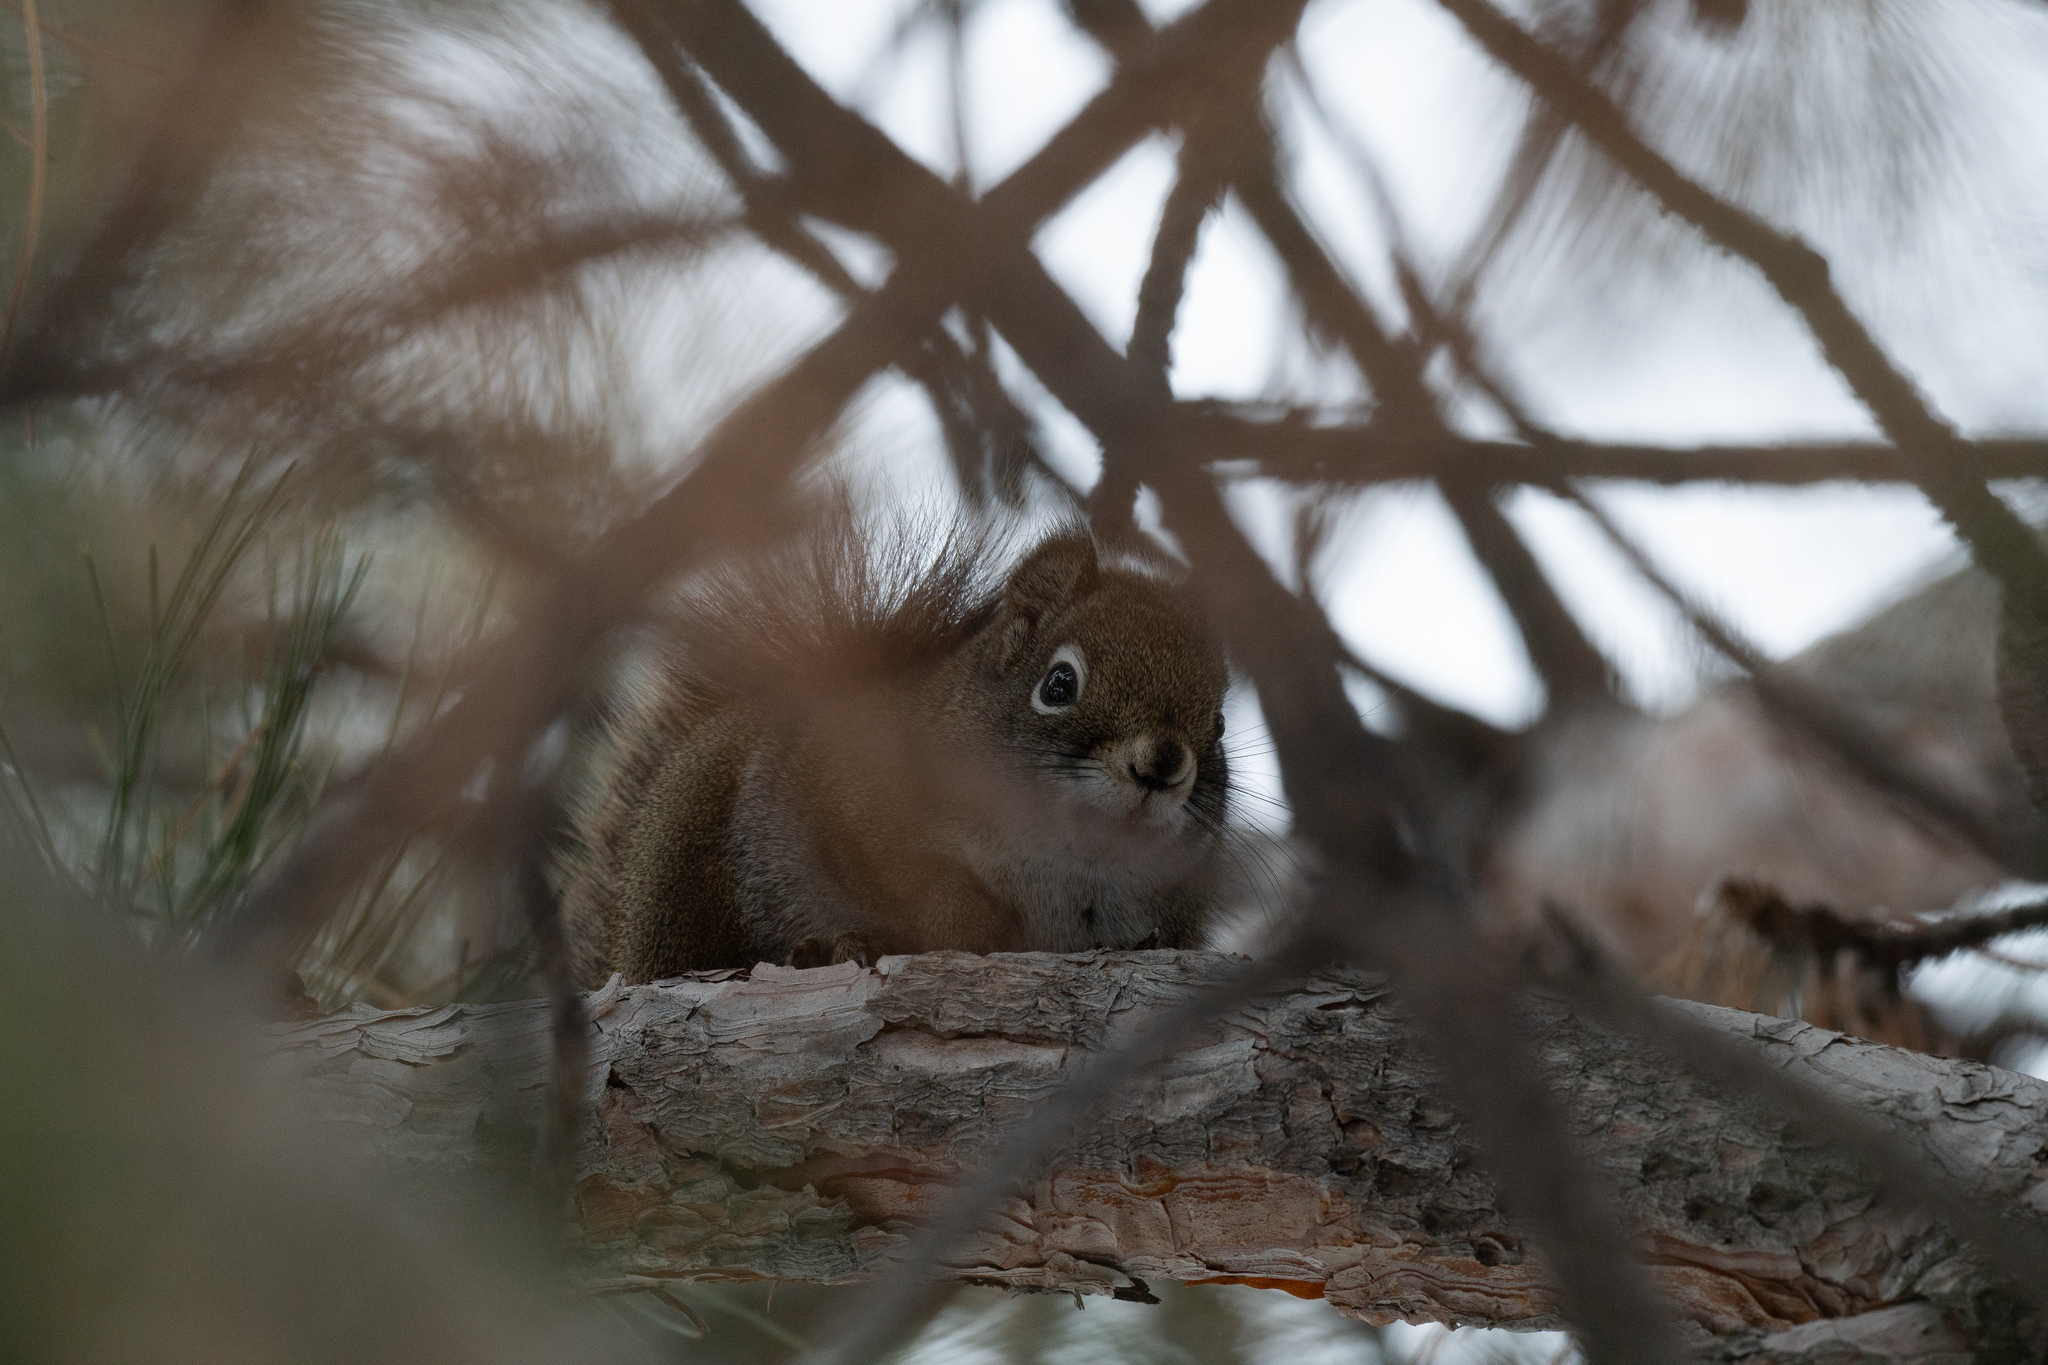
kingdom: Animalia
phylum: Chordata
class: Mammalia
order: Rodentia
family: Sciuridae
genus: Tamiasciurus
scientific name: Tamiasciurus hudsonicus
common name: Red squirrel
